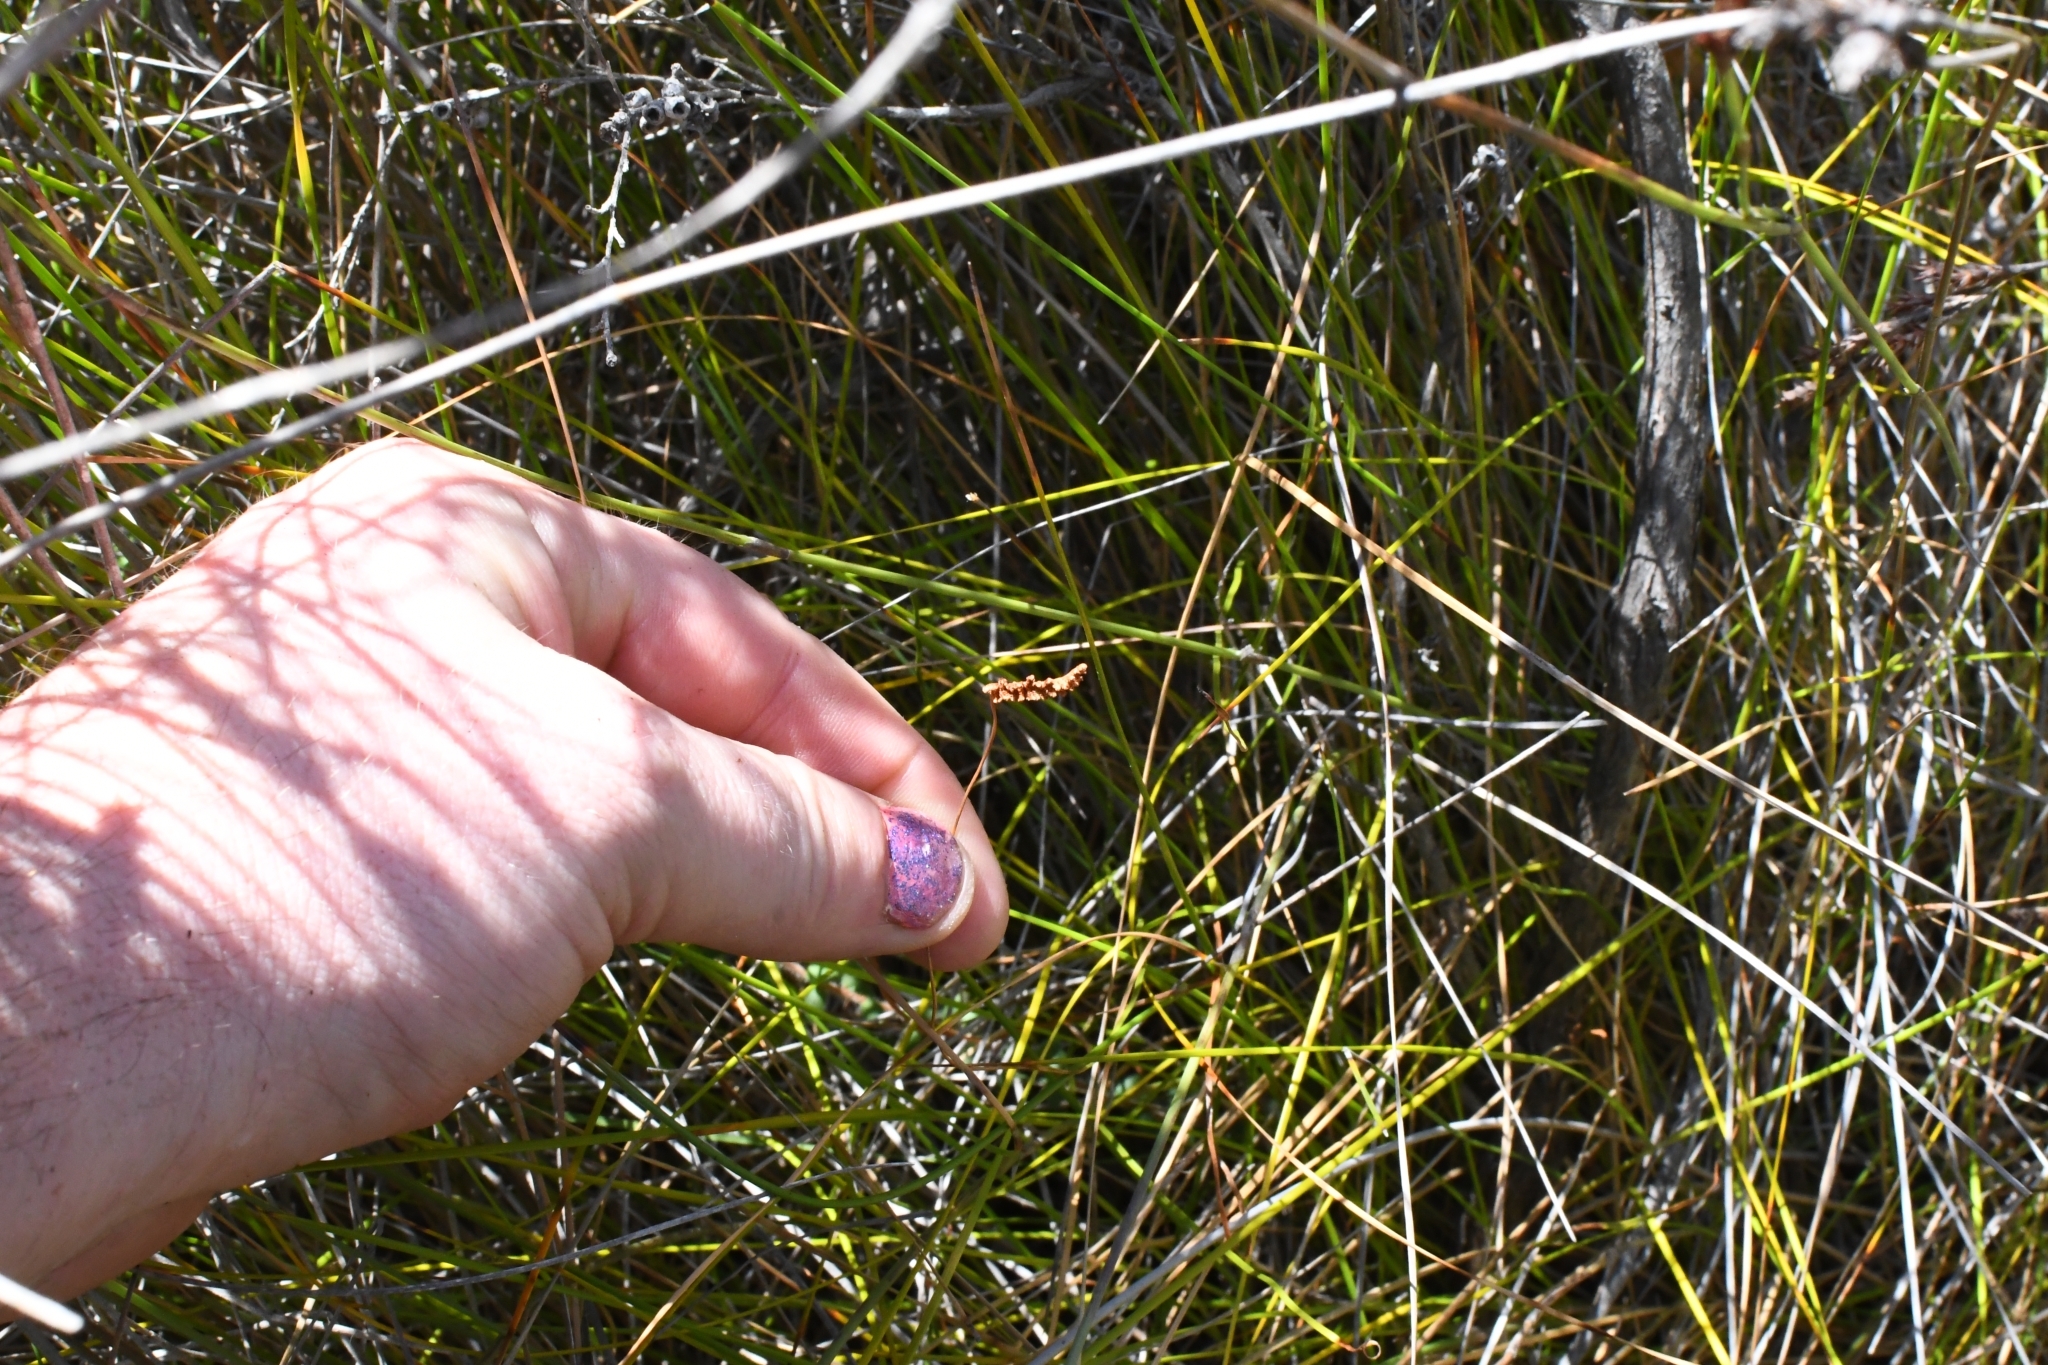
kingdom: Plantae
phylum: Tracheophyta
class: Polypodiopsida
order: Schizaeales
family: Schizaeaceae
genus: Microschizaea
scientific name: Microschizaea fistulosa
